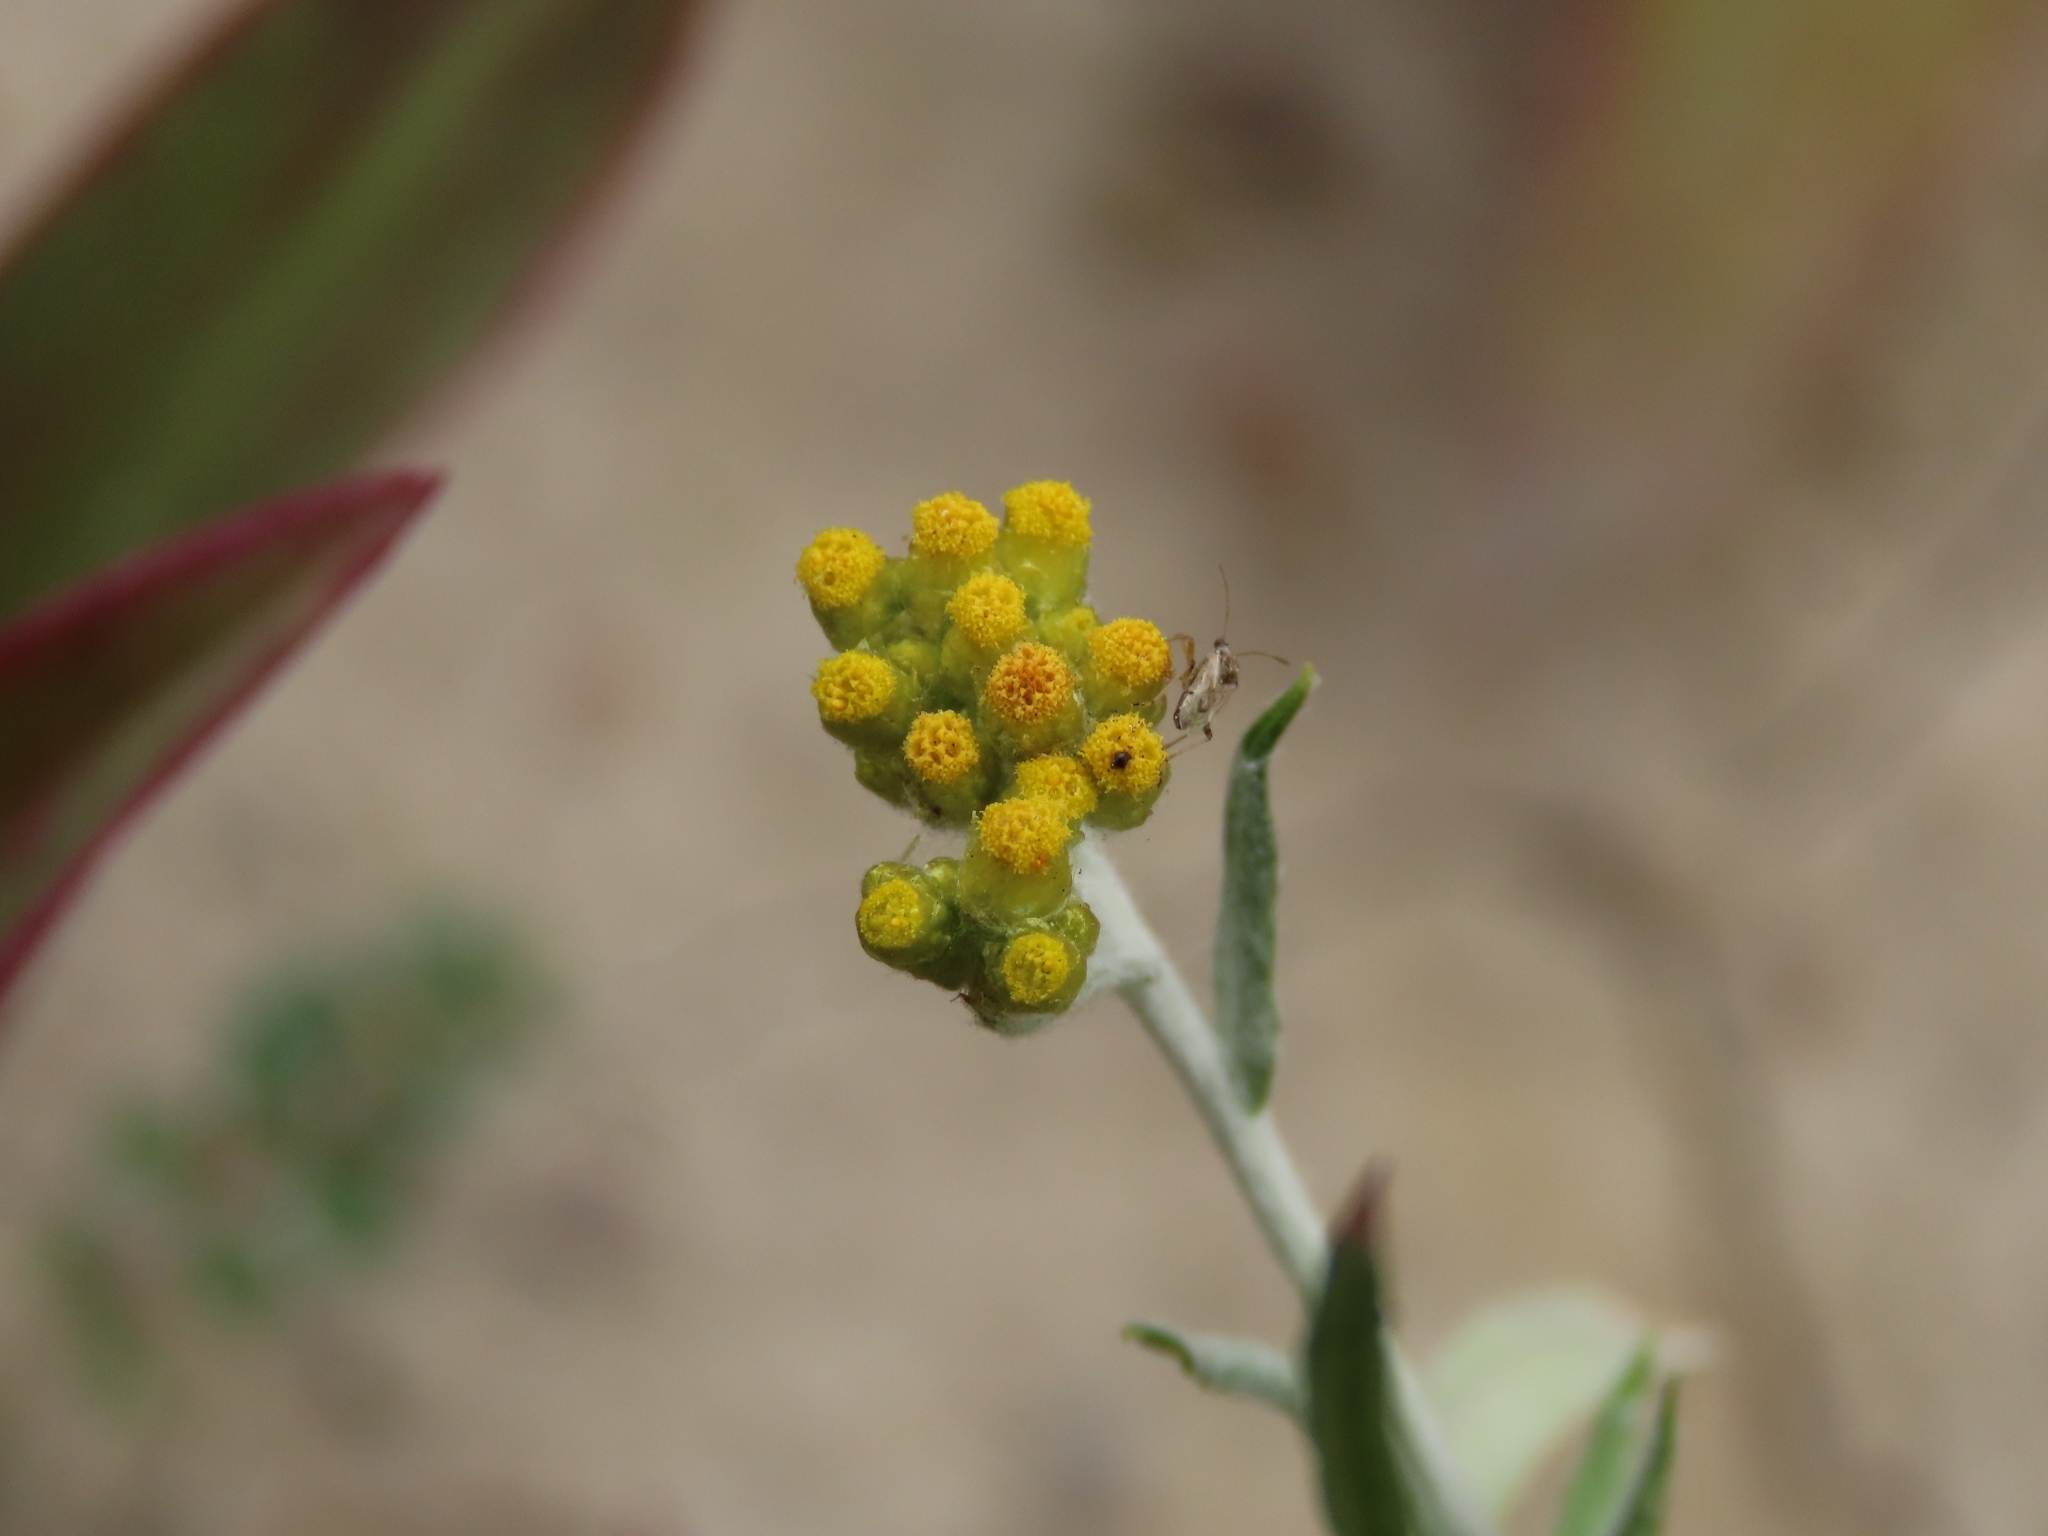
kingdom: Plantae
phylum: Tracheophyta
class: Magnoliopsida
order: Asterales
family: Asteraceae
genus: Pseudognaphalium
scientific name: Pseudognaphalium affine
